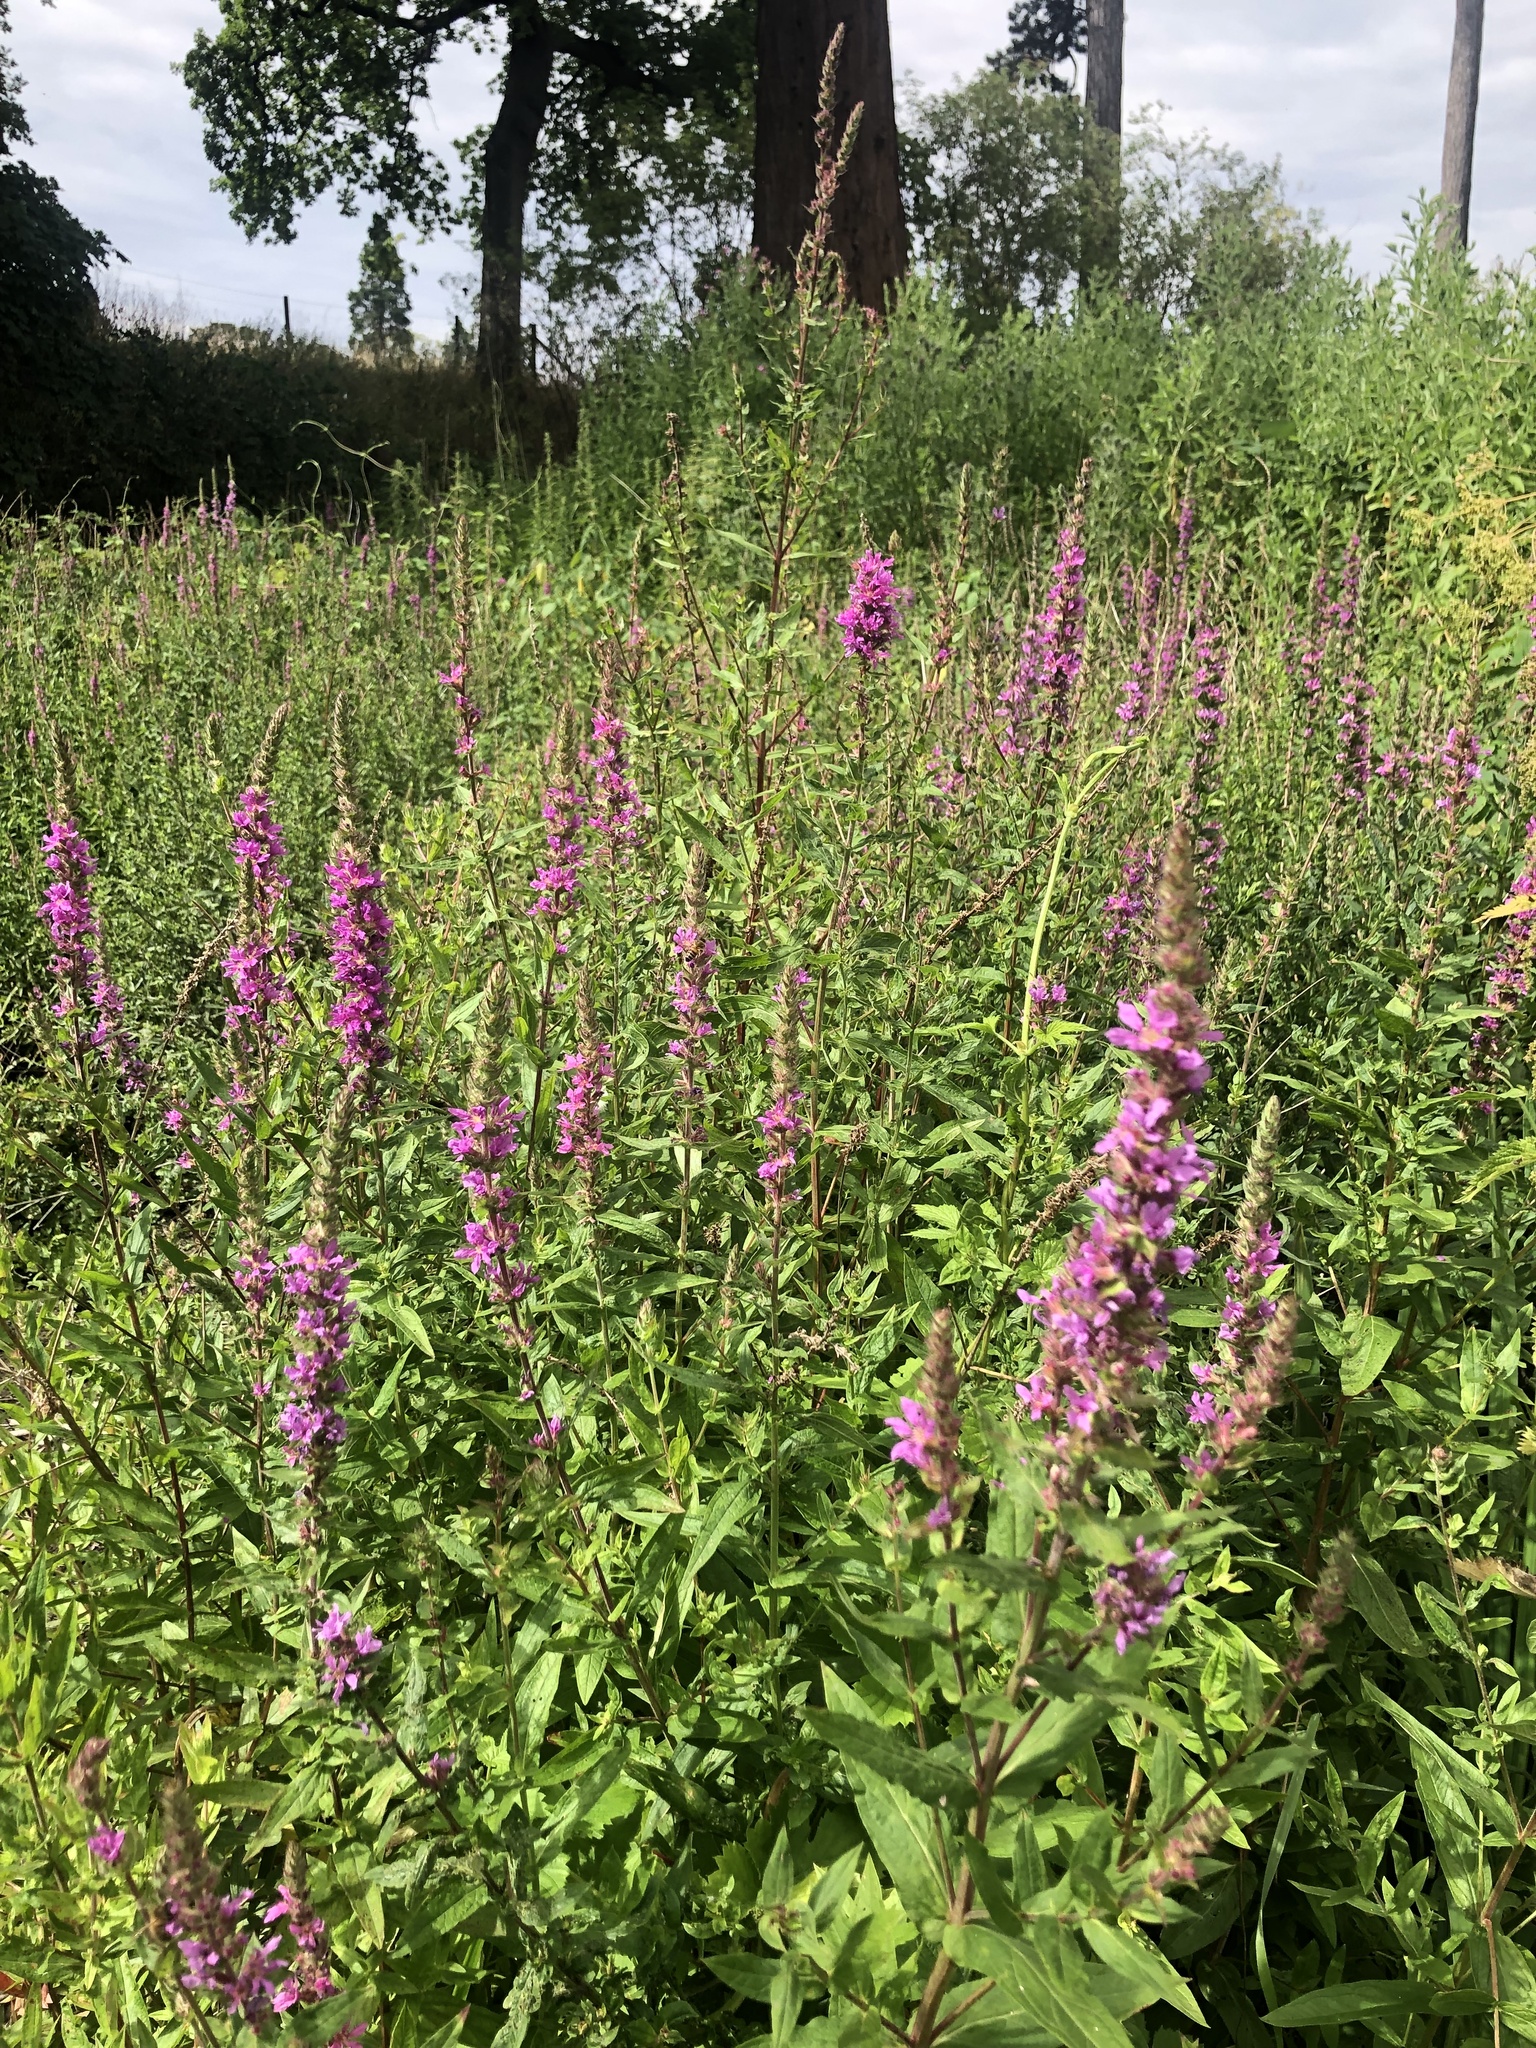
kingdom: Plantae
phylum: Tracheophyta
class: Magnoliopsida
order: Myrtales
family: Lythraceae
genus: Lythrum
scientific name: Lythrum salicaria
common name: Purple loosestrife
